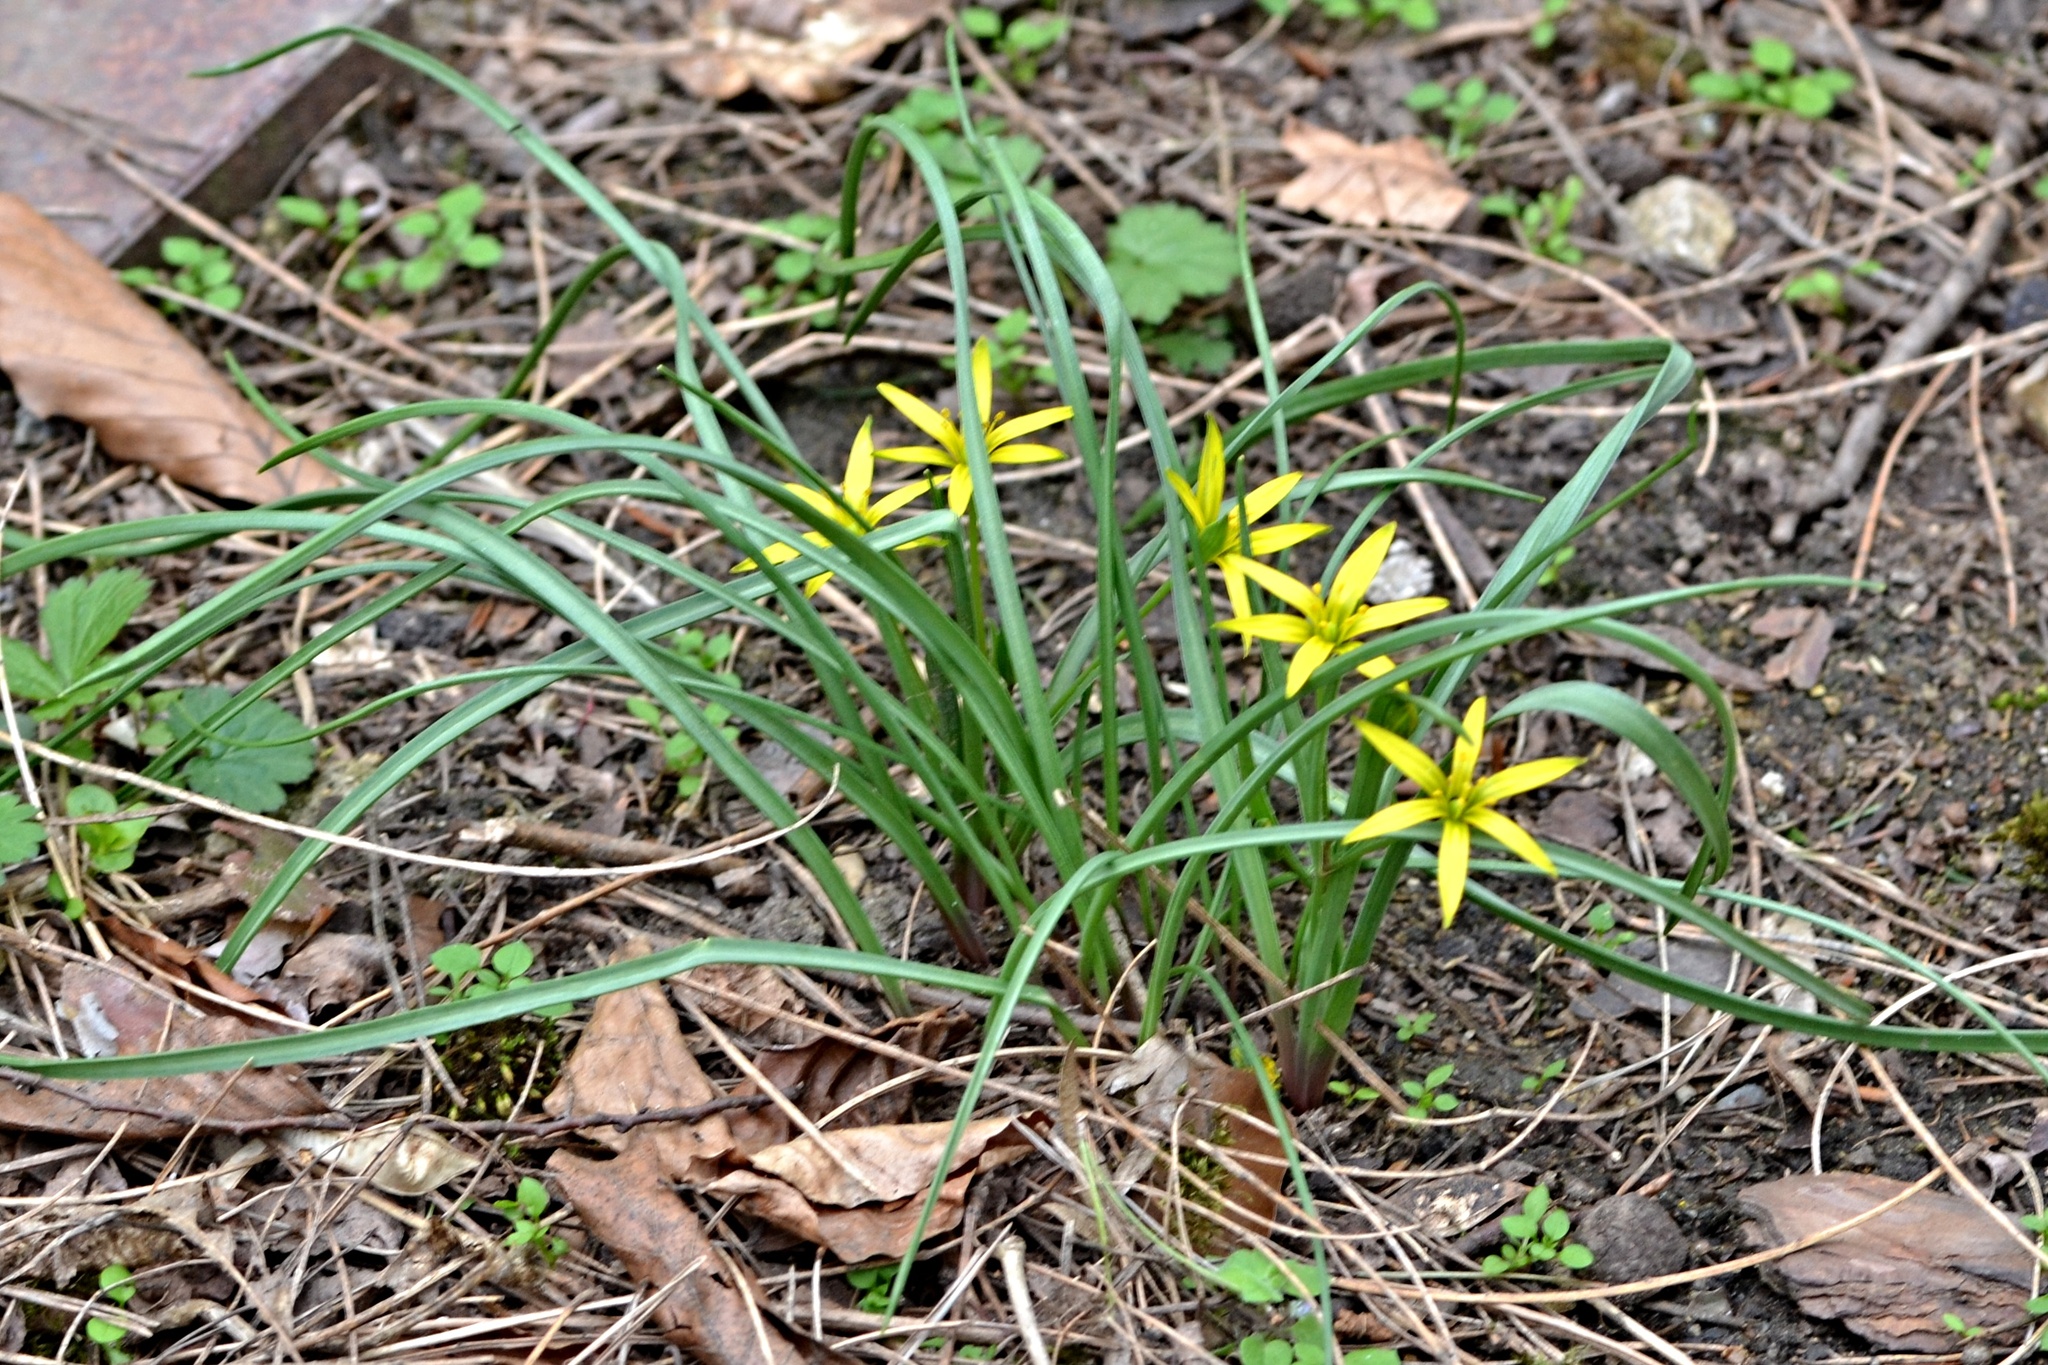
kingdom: Plantae
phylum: Tracheophyta
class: Liliopsida
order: Liliales
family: Liliaceae
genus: Gagea
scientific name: Gagea pratensis
